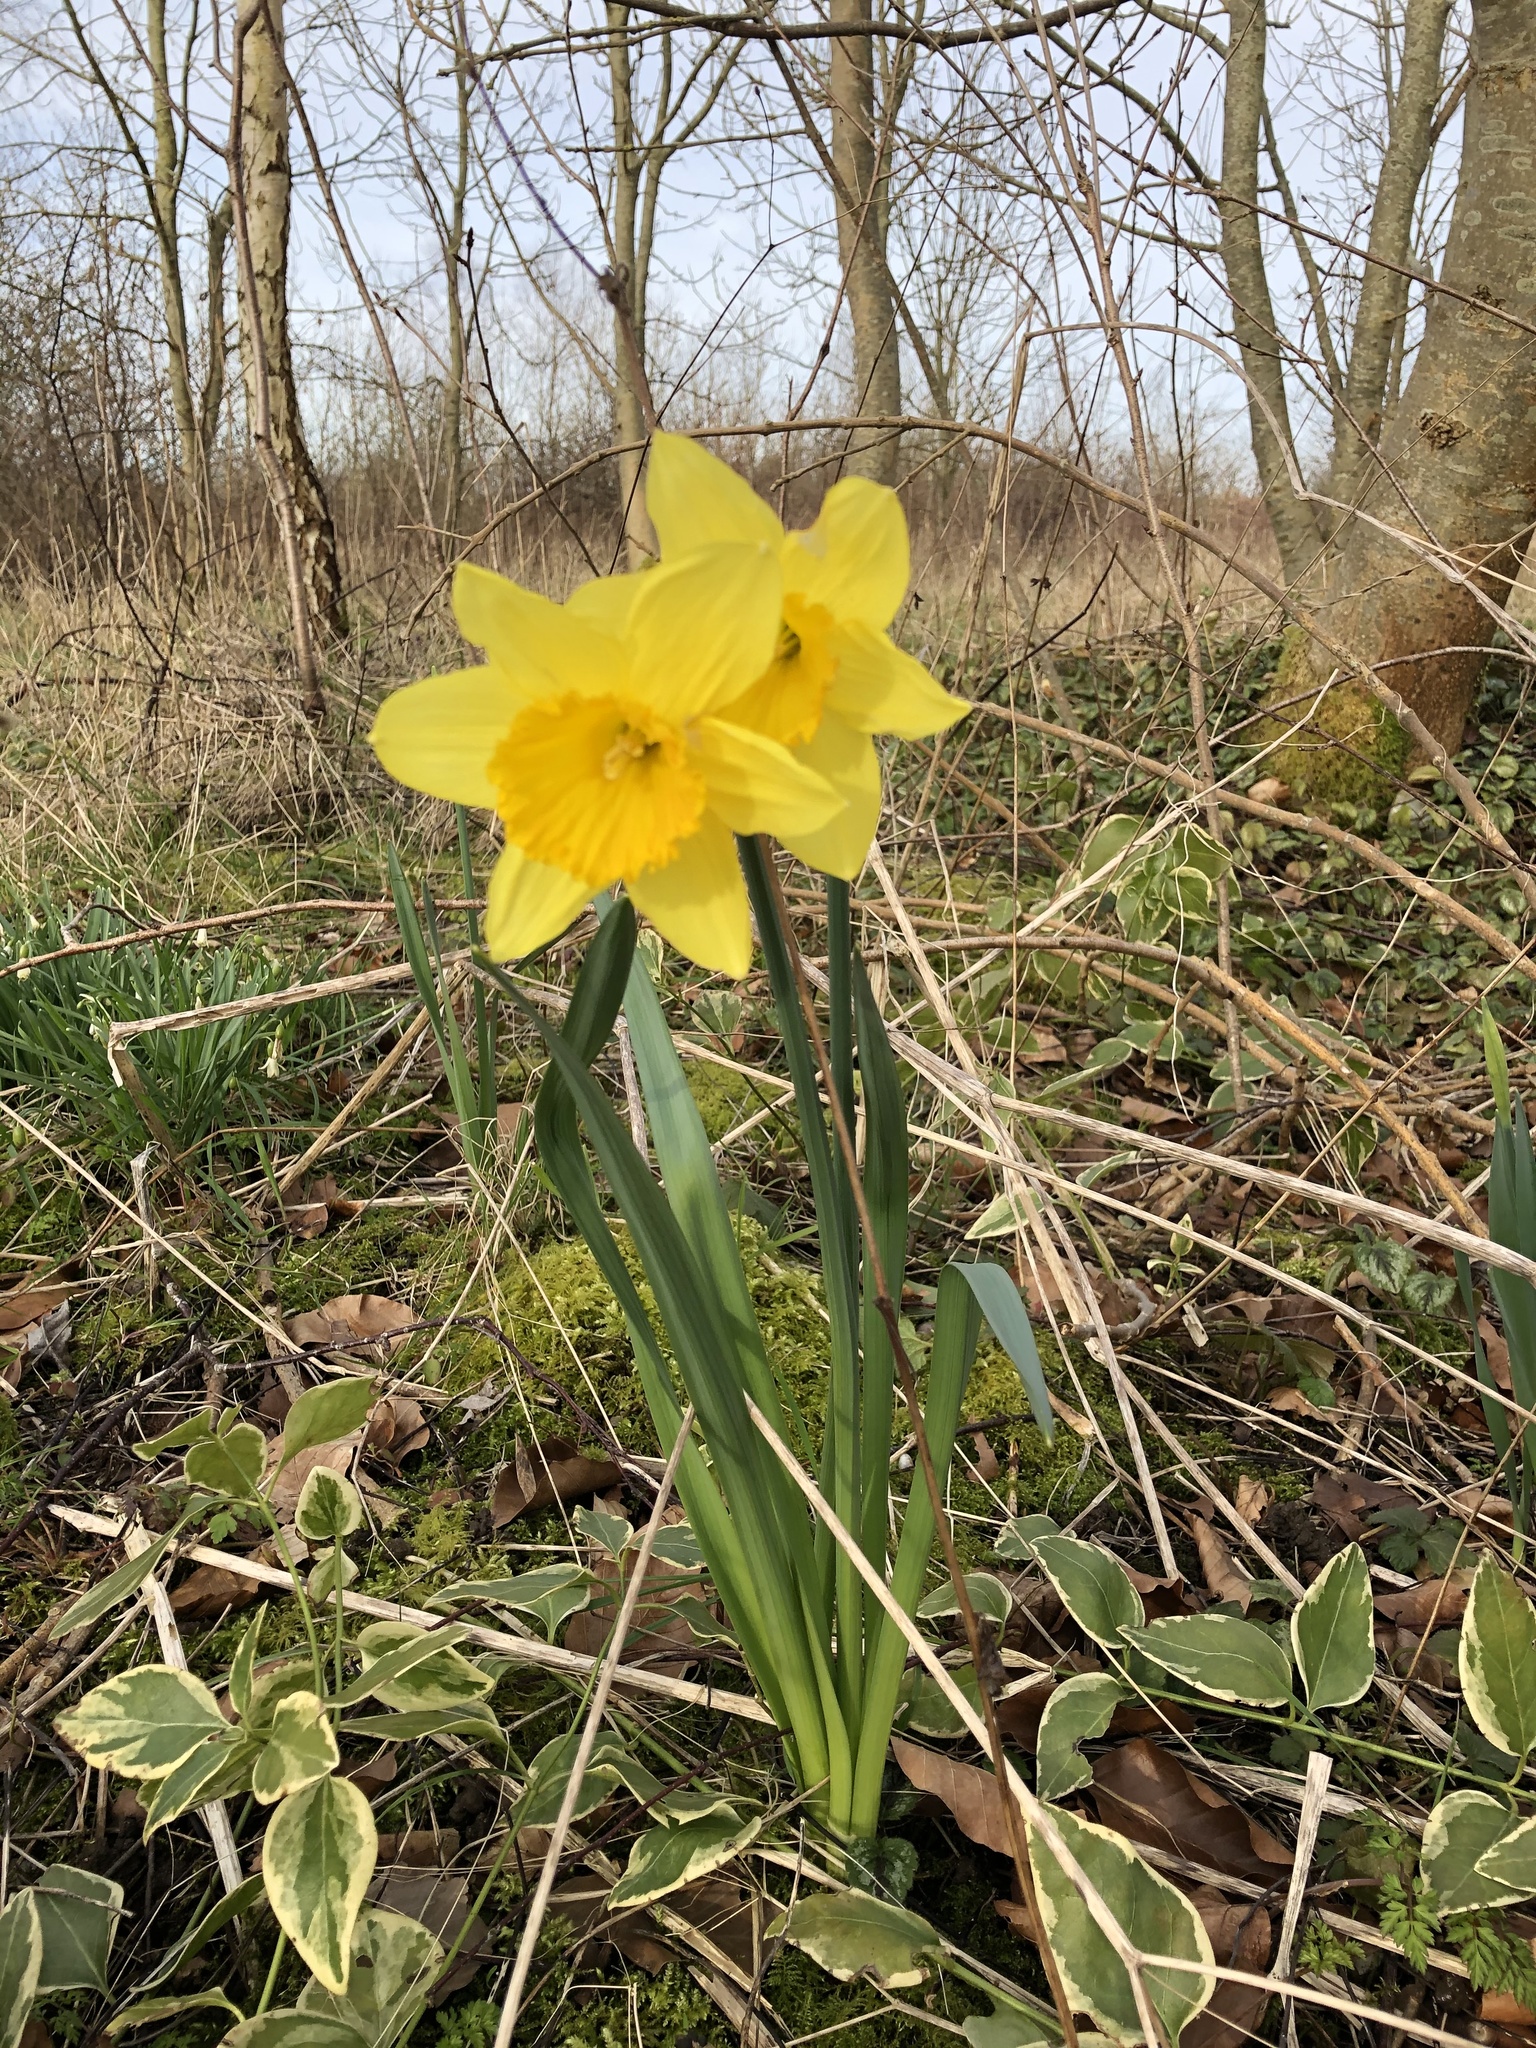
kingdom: Plantae
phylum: Tracheophyta
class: Liliopsida
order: Asparagales
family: Amaryllidaceae
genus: Narcissus
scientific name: Narcissus
